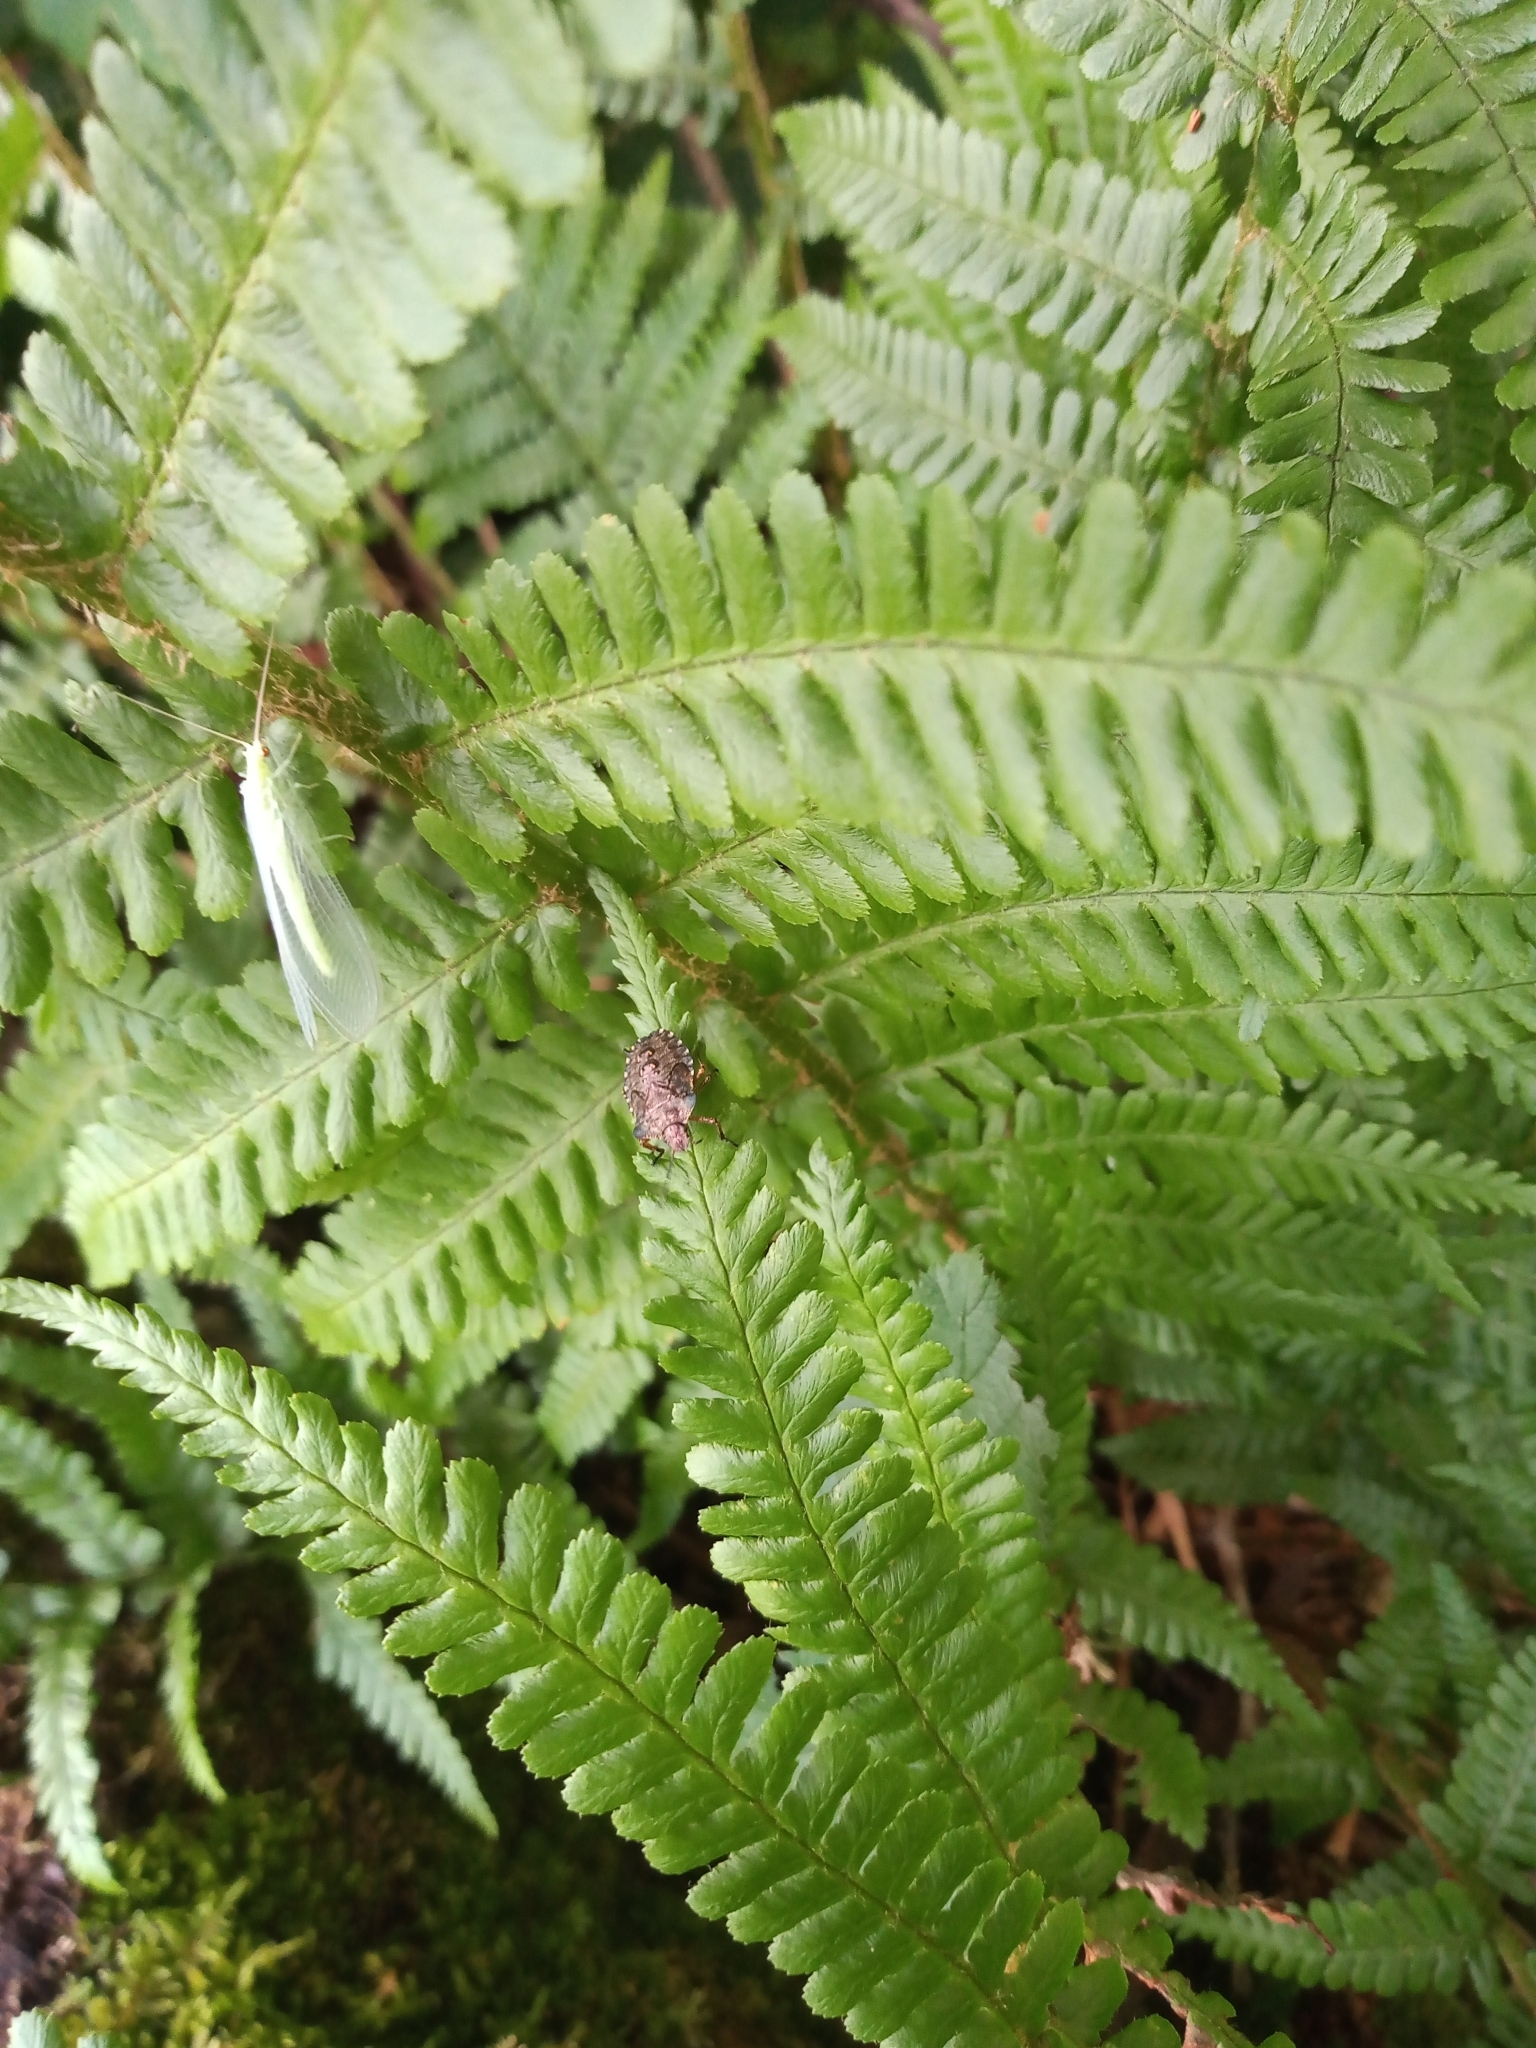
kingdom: Animalia
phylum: Arthropoda
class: Insecta
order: Hemiptera
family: Pentatomidae
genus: Pentatoma
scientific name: Pentatoma rufipes
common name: Forest bug
